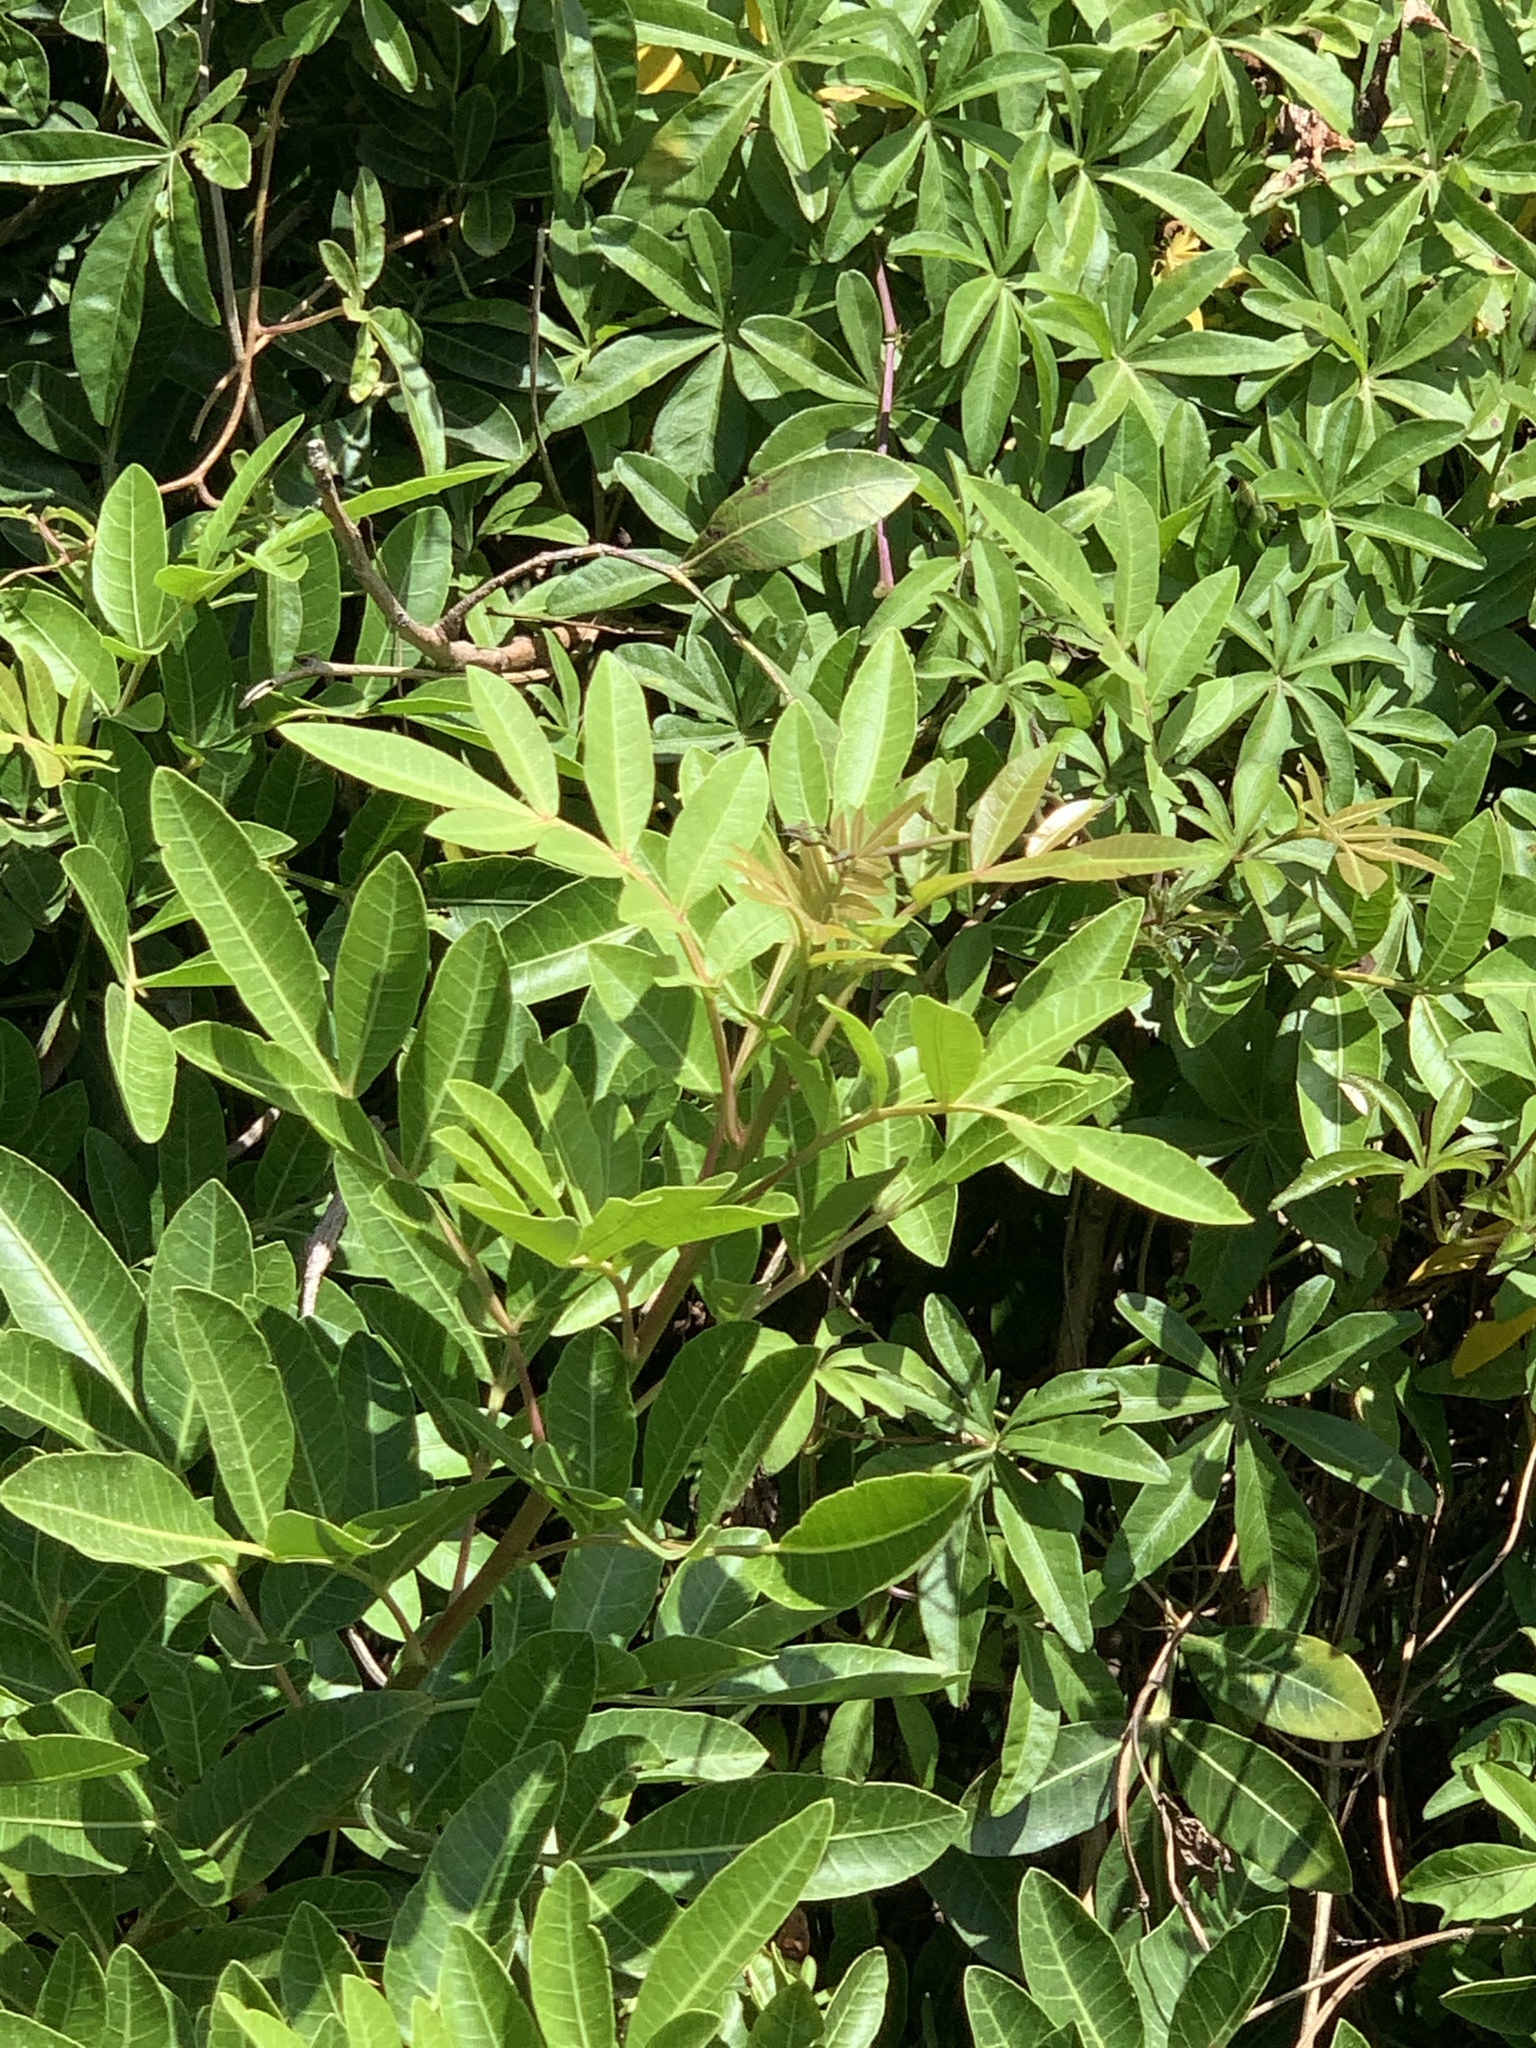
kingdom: Plantae
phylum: Tracheophyta
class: Magnoliopsida
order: Sapindales
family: Anacardiaceae
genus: Schinus
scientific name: Schinus terebinthifolia
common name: Brazilian peppertree
